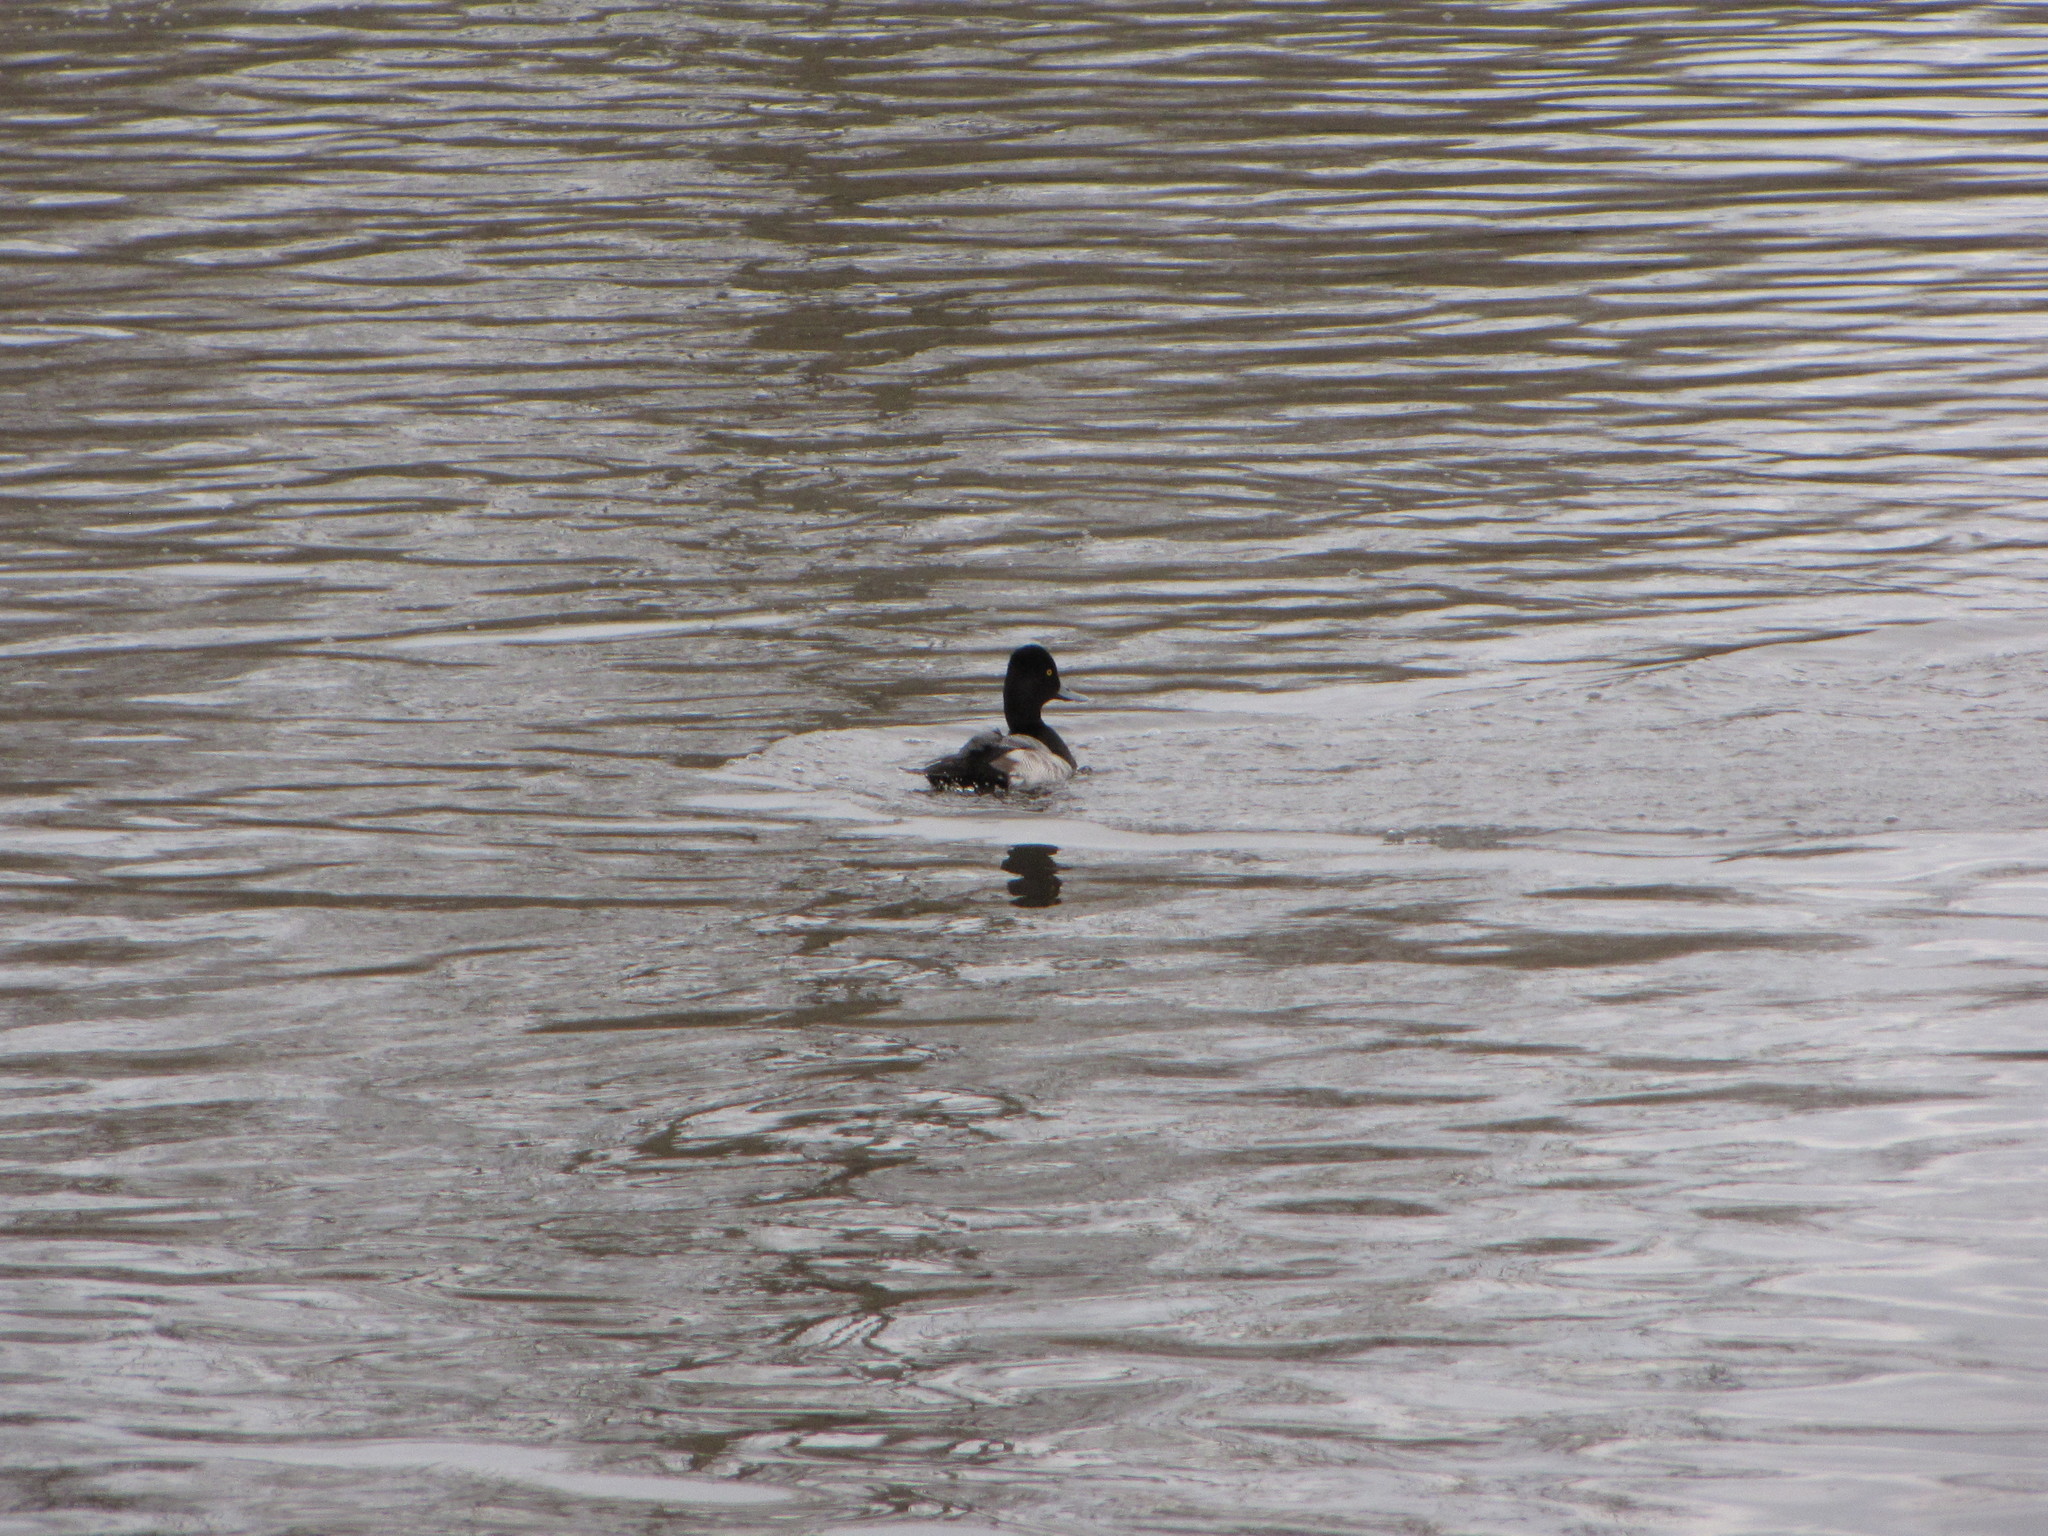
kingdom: Animalia
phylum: Chordata
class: Aves
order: Anseriformes
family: Anatidae
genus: Aythya
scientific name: Aythya affinis
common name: Lesser scaup
